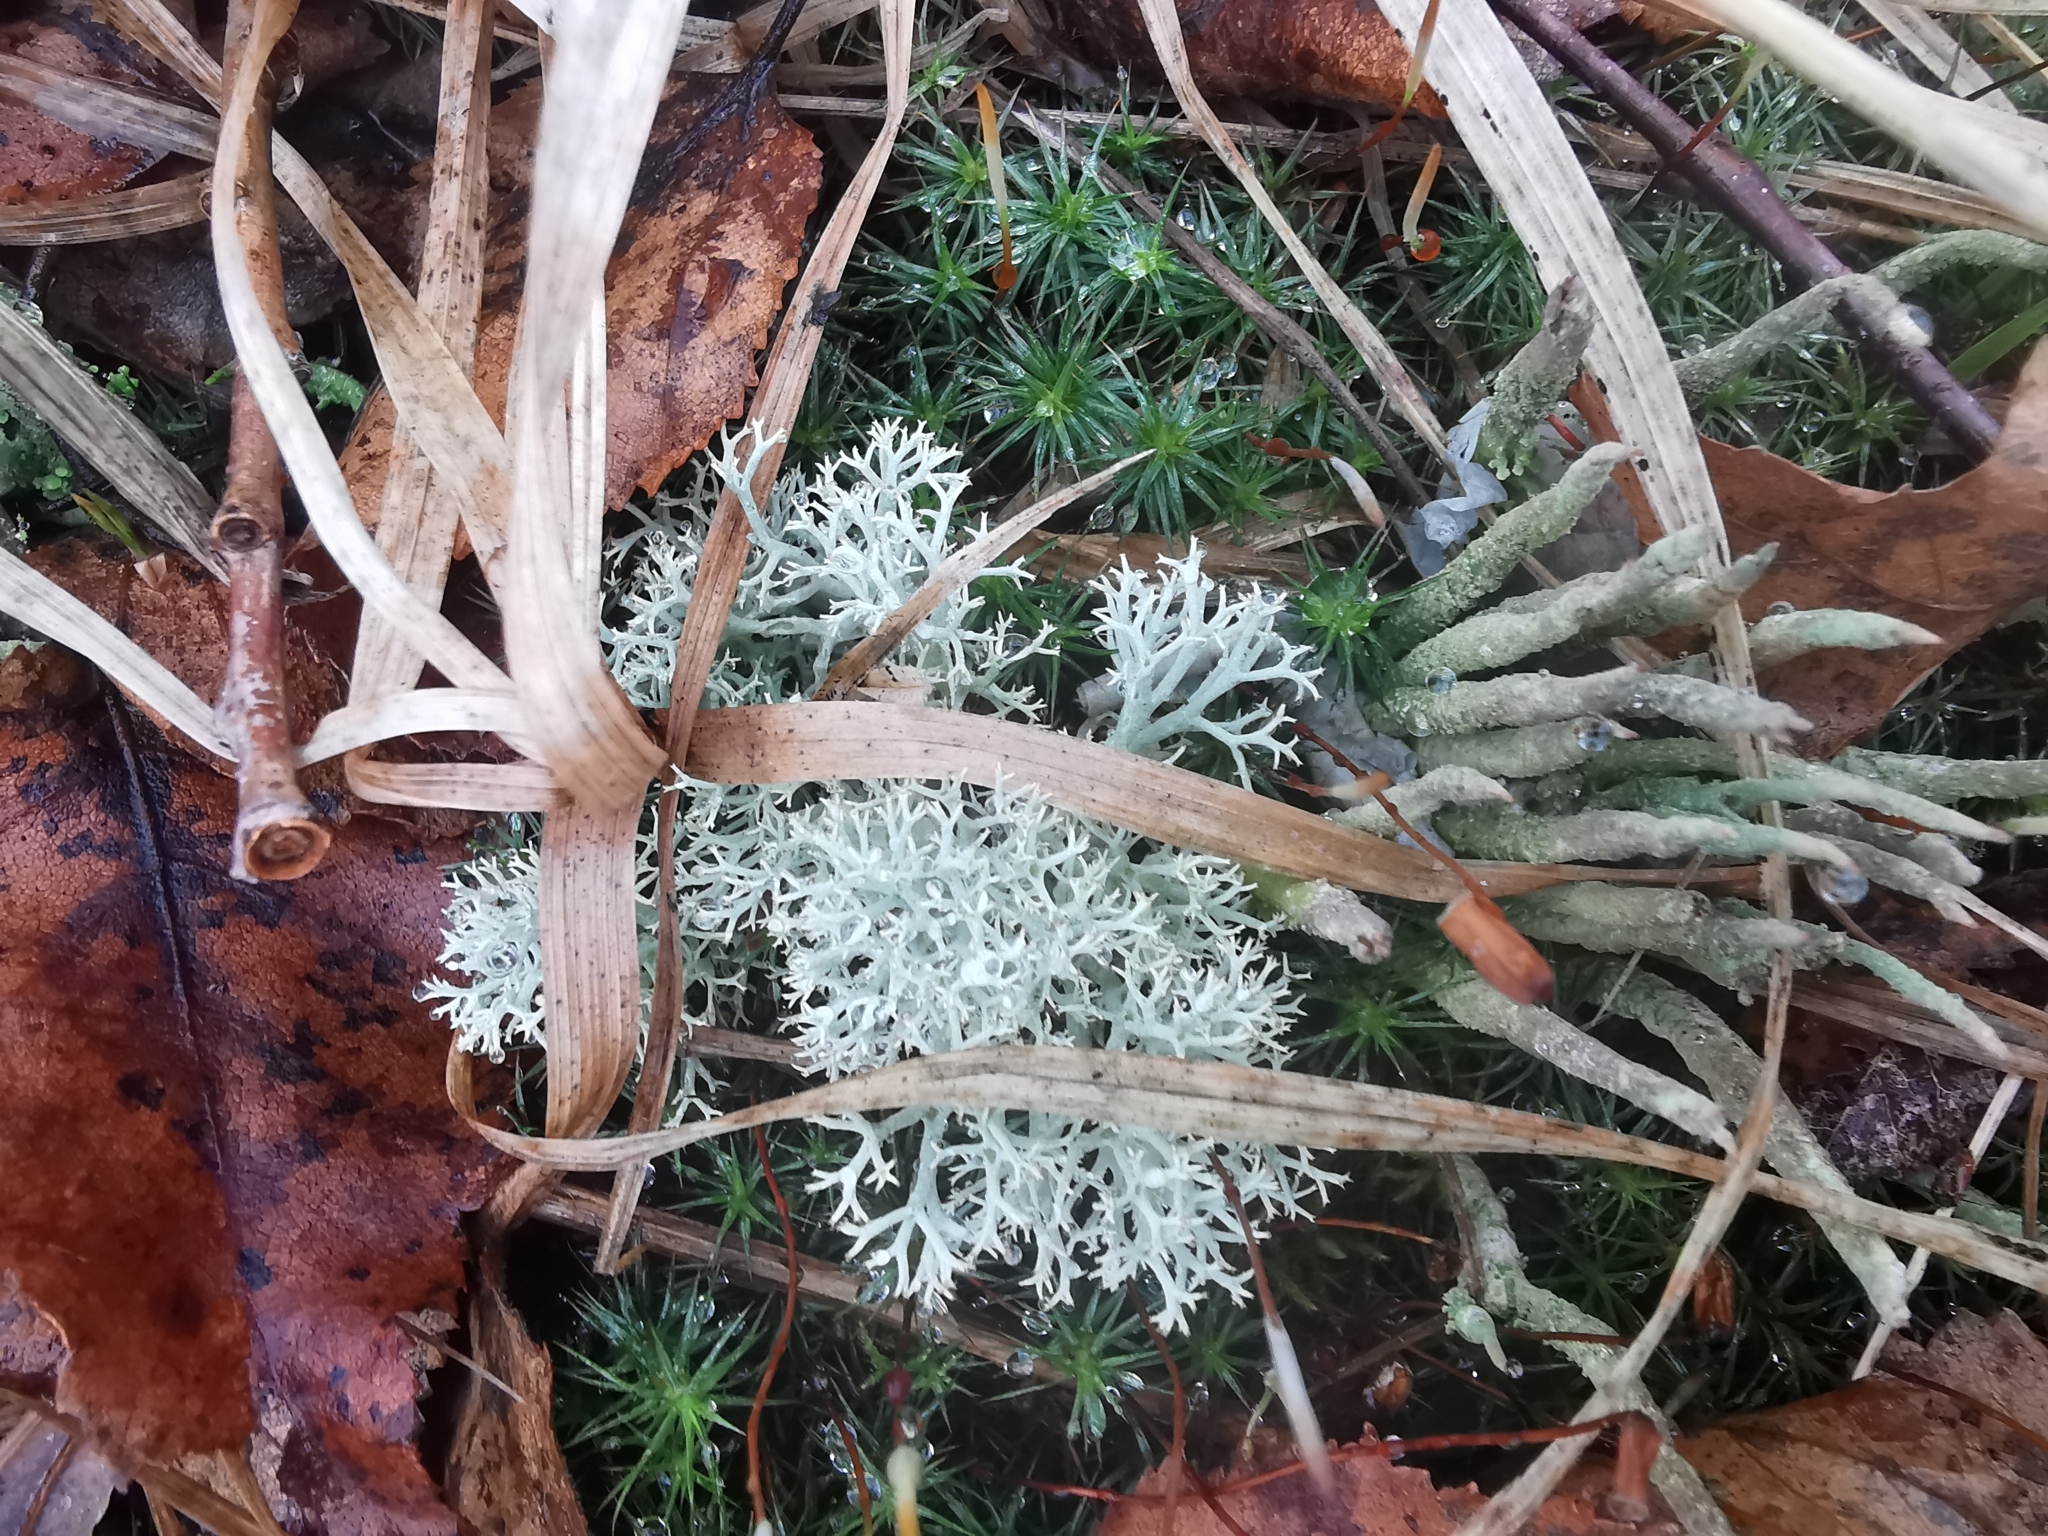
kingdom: Fungi
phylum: Ascomycota
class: Lecanoromycetes
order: Lecanorales
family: Cladoniaceae
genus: Cladonia
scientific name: Cladonia rangiferina
